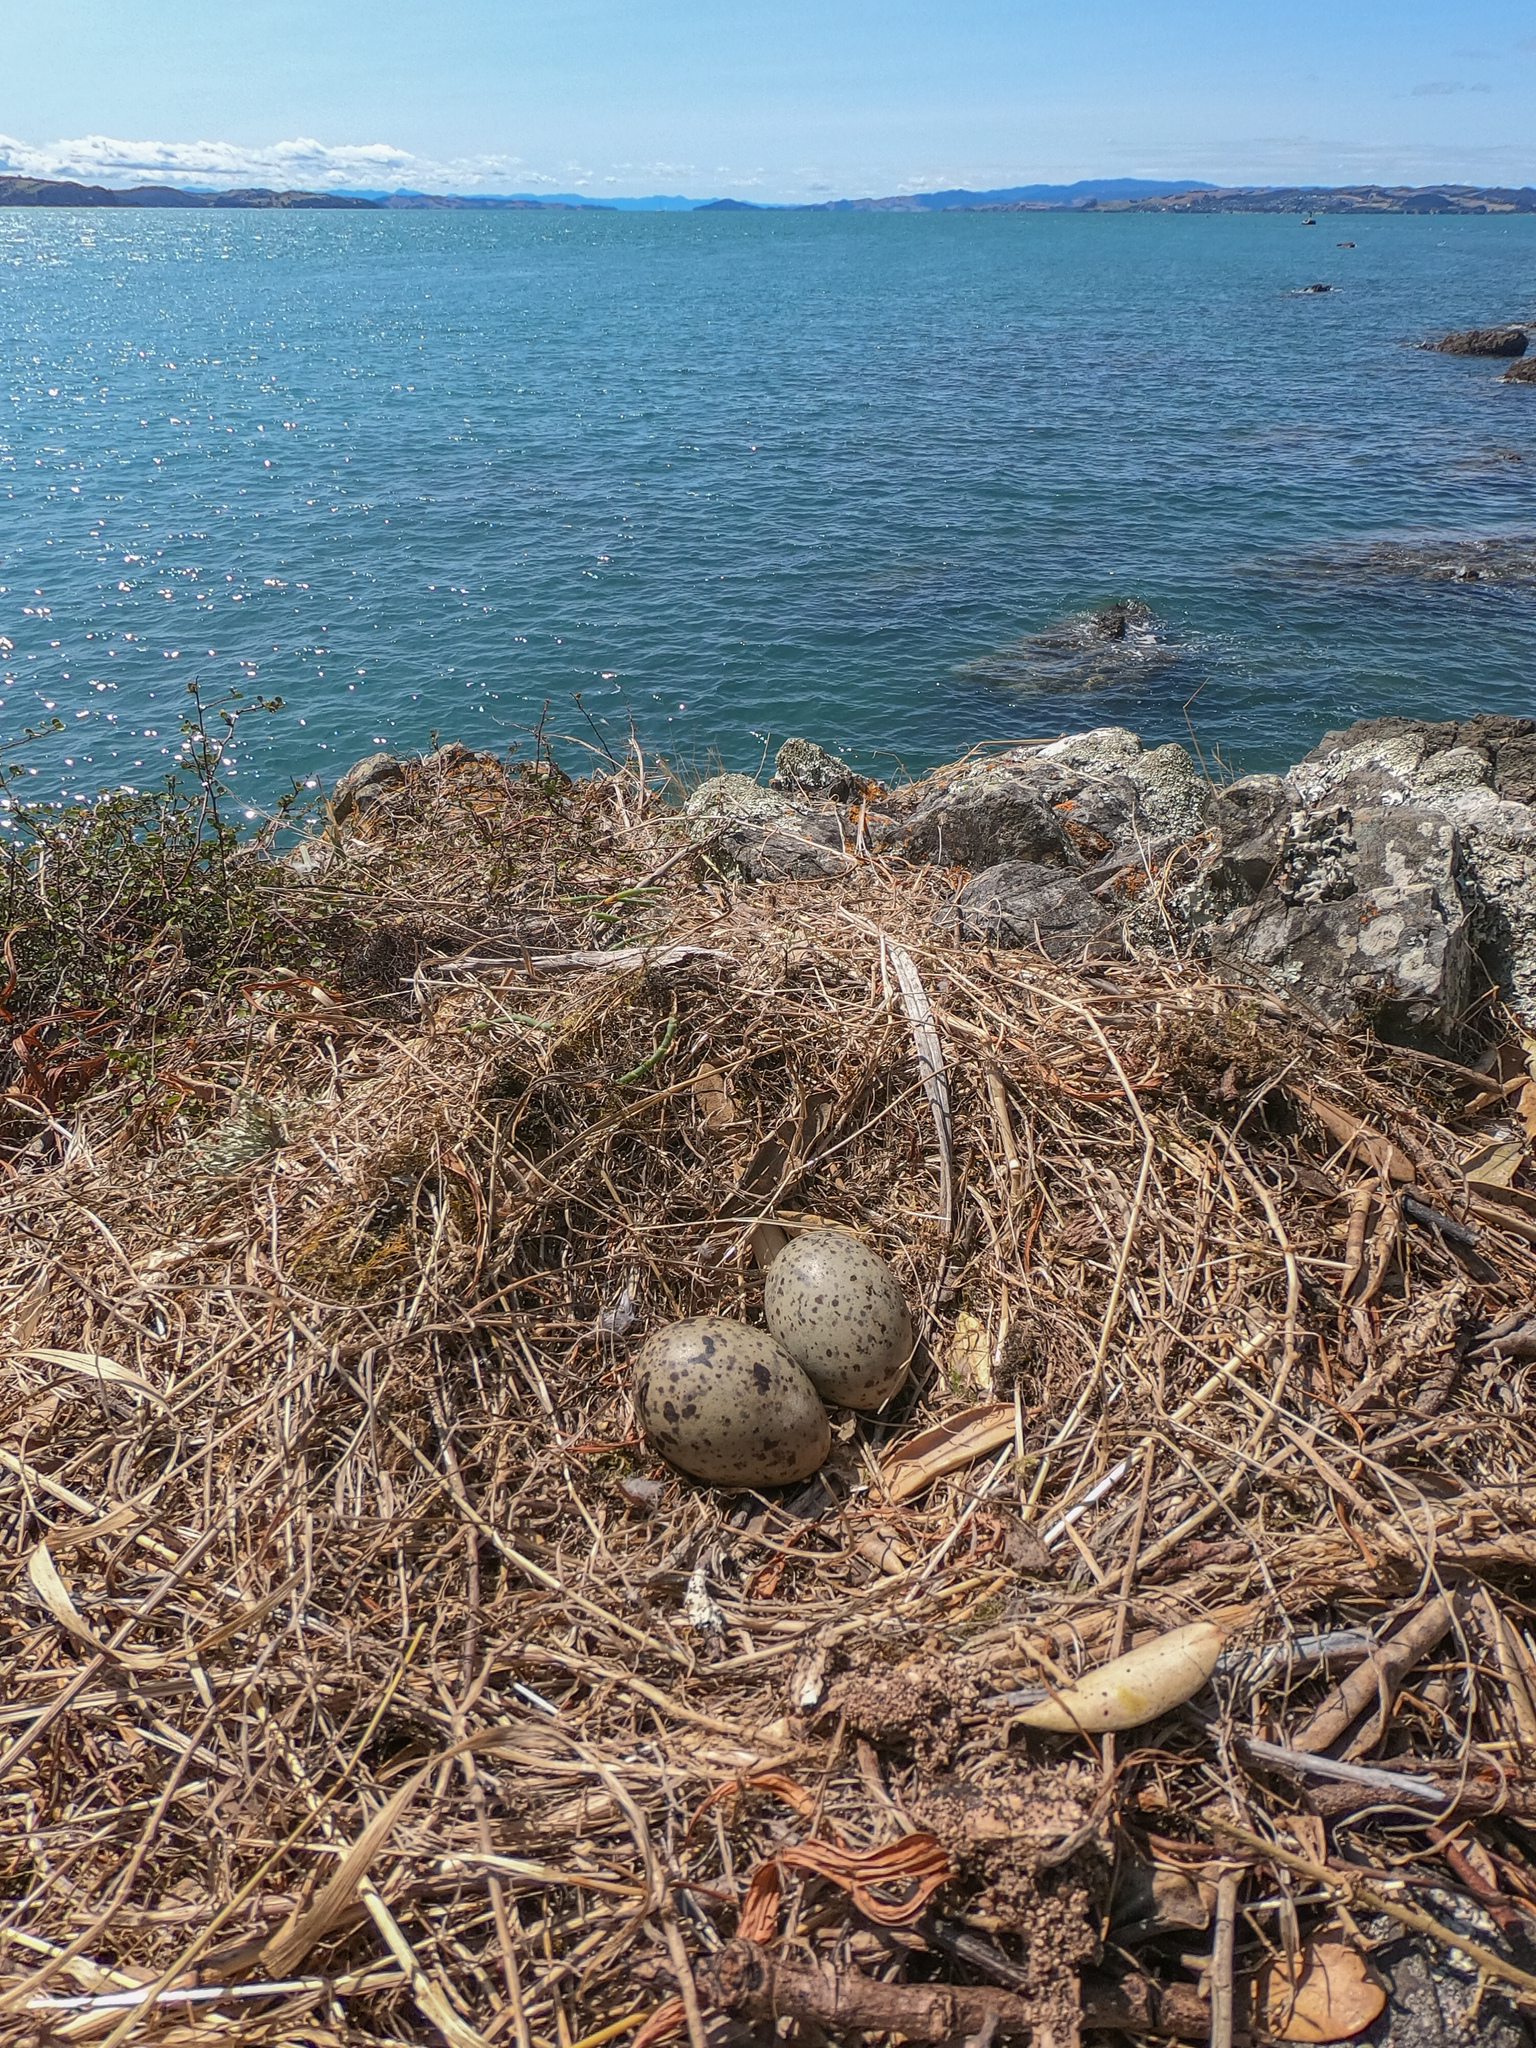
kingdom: Animalia
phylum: Chordata
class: Aves
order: Charadriiformes
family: Laridae
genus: Larus
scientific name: Larus dominicanus
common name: Kelp gull
